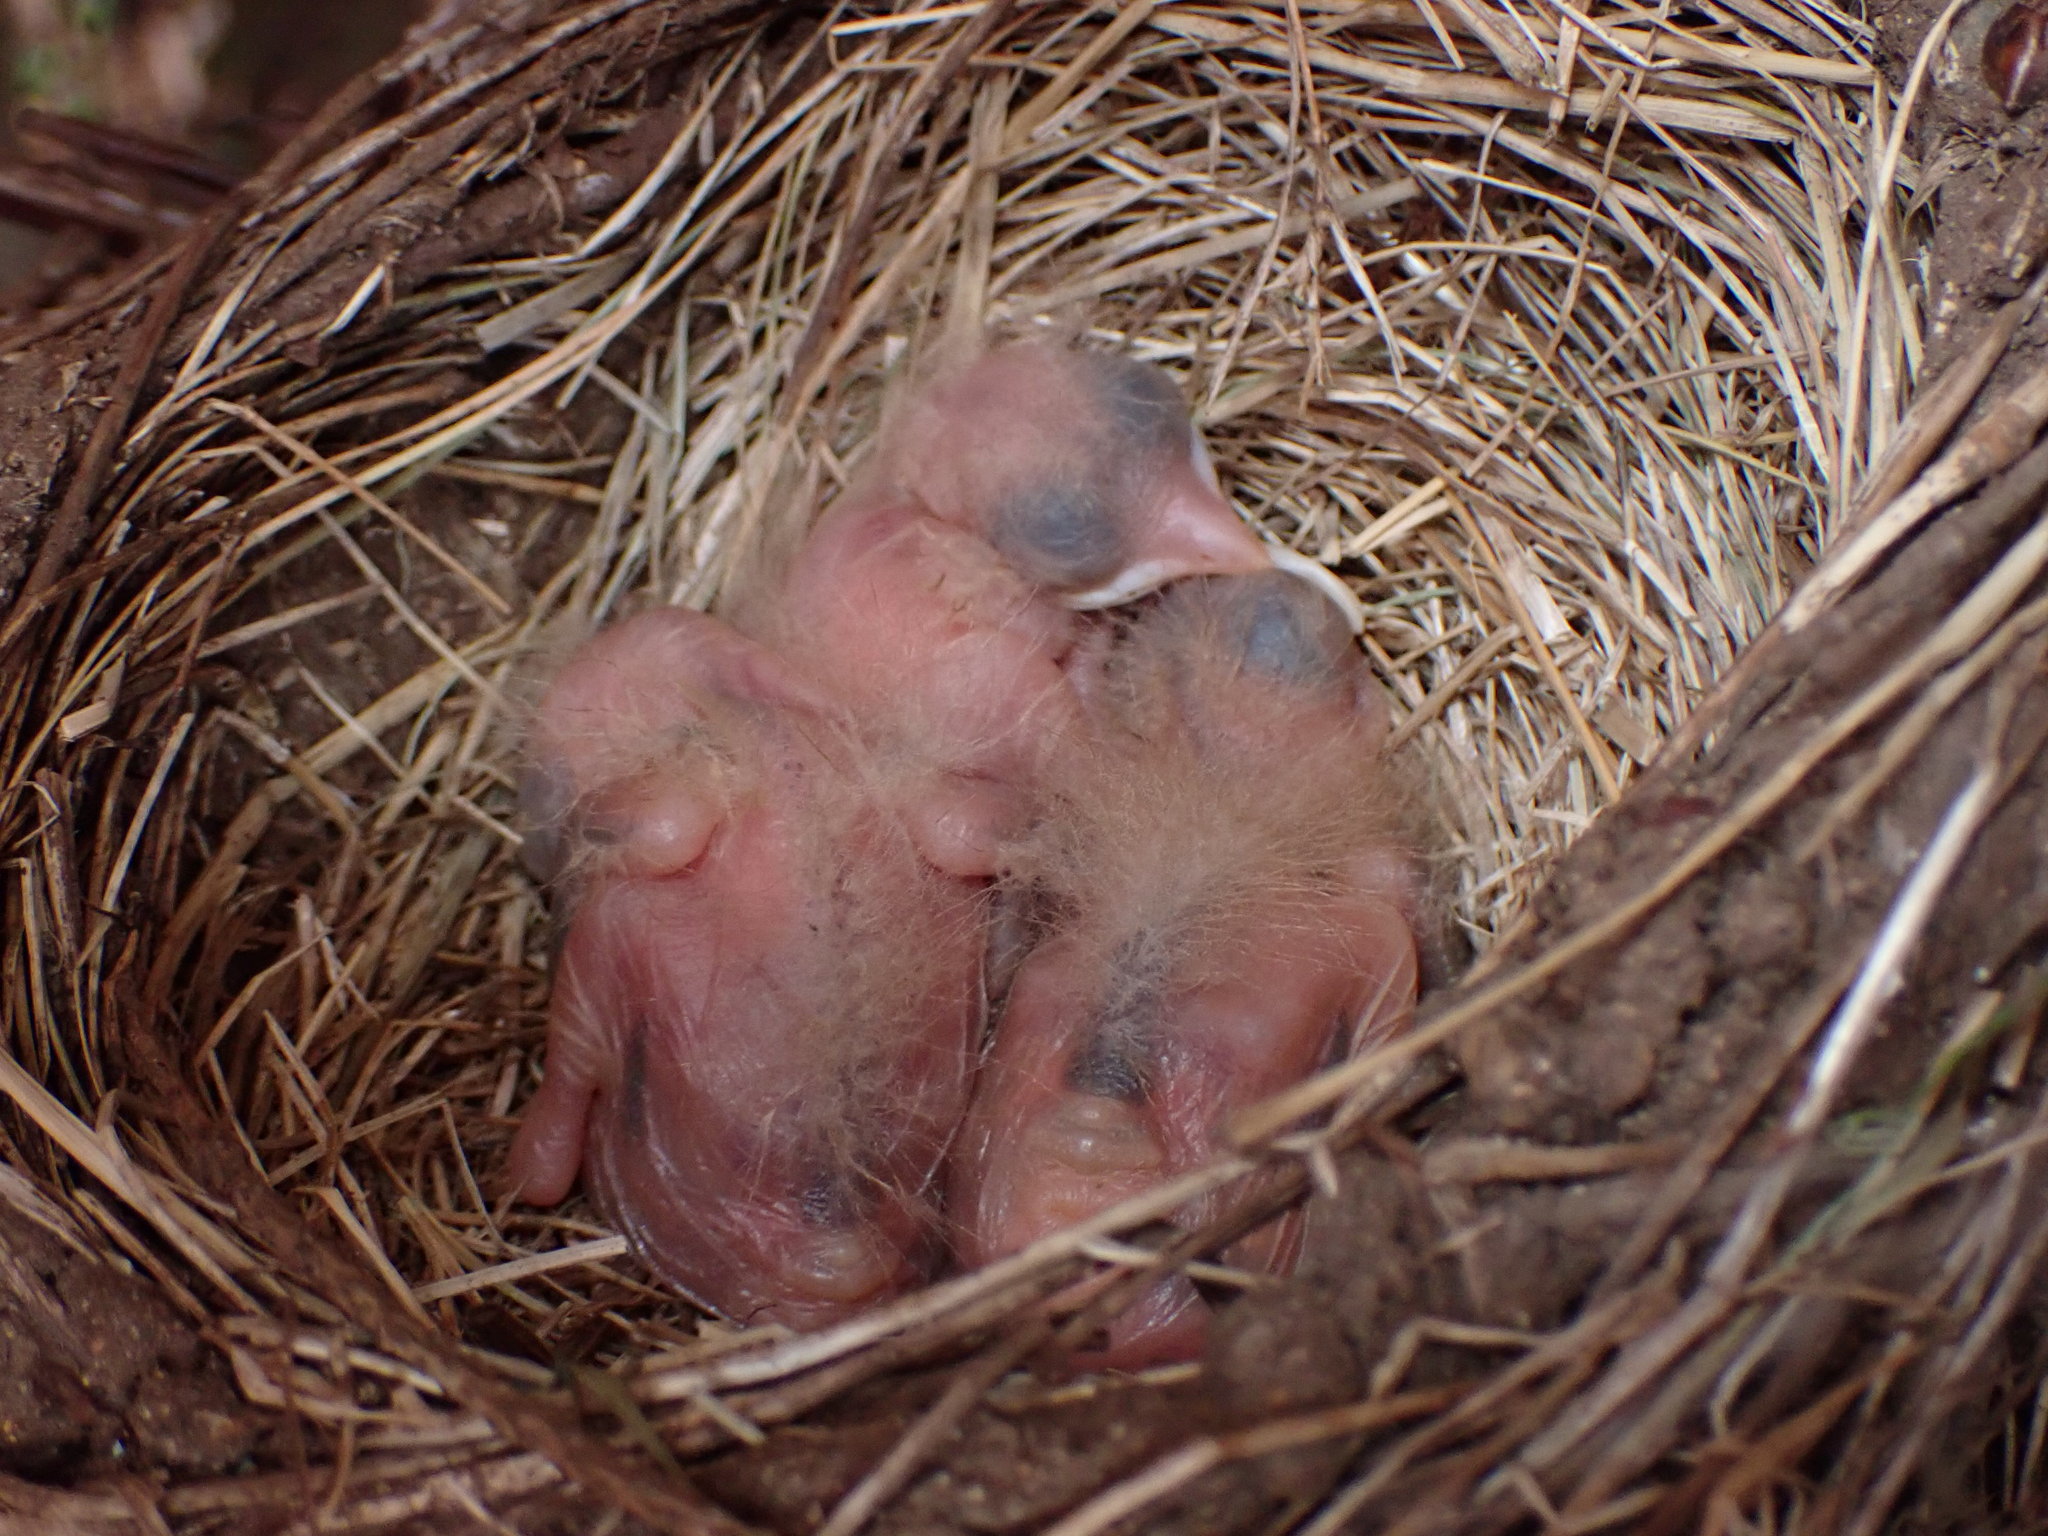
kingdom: Animalia
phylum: Chordata
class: Aves
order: Passeriformes
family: Turdidae
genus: Turdus
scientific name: Turdus migratorius
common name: American robin
